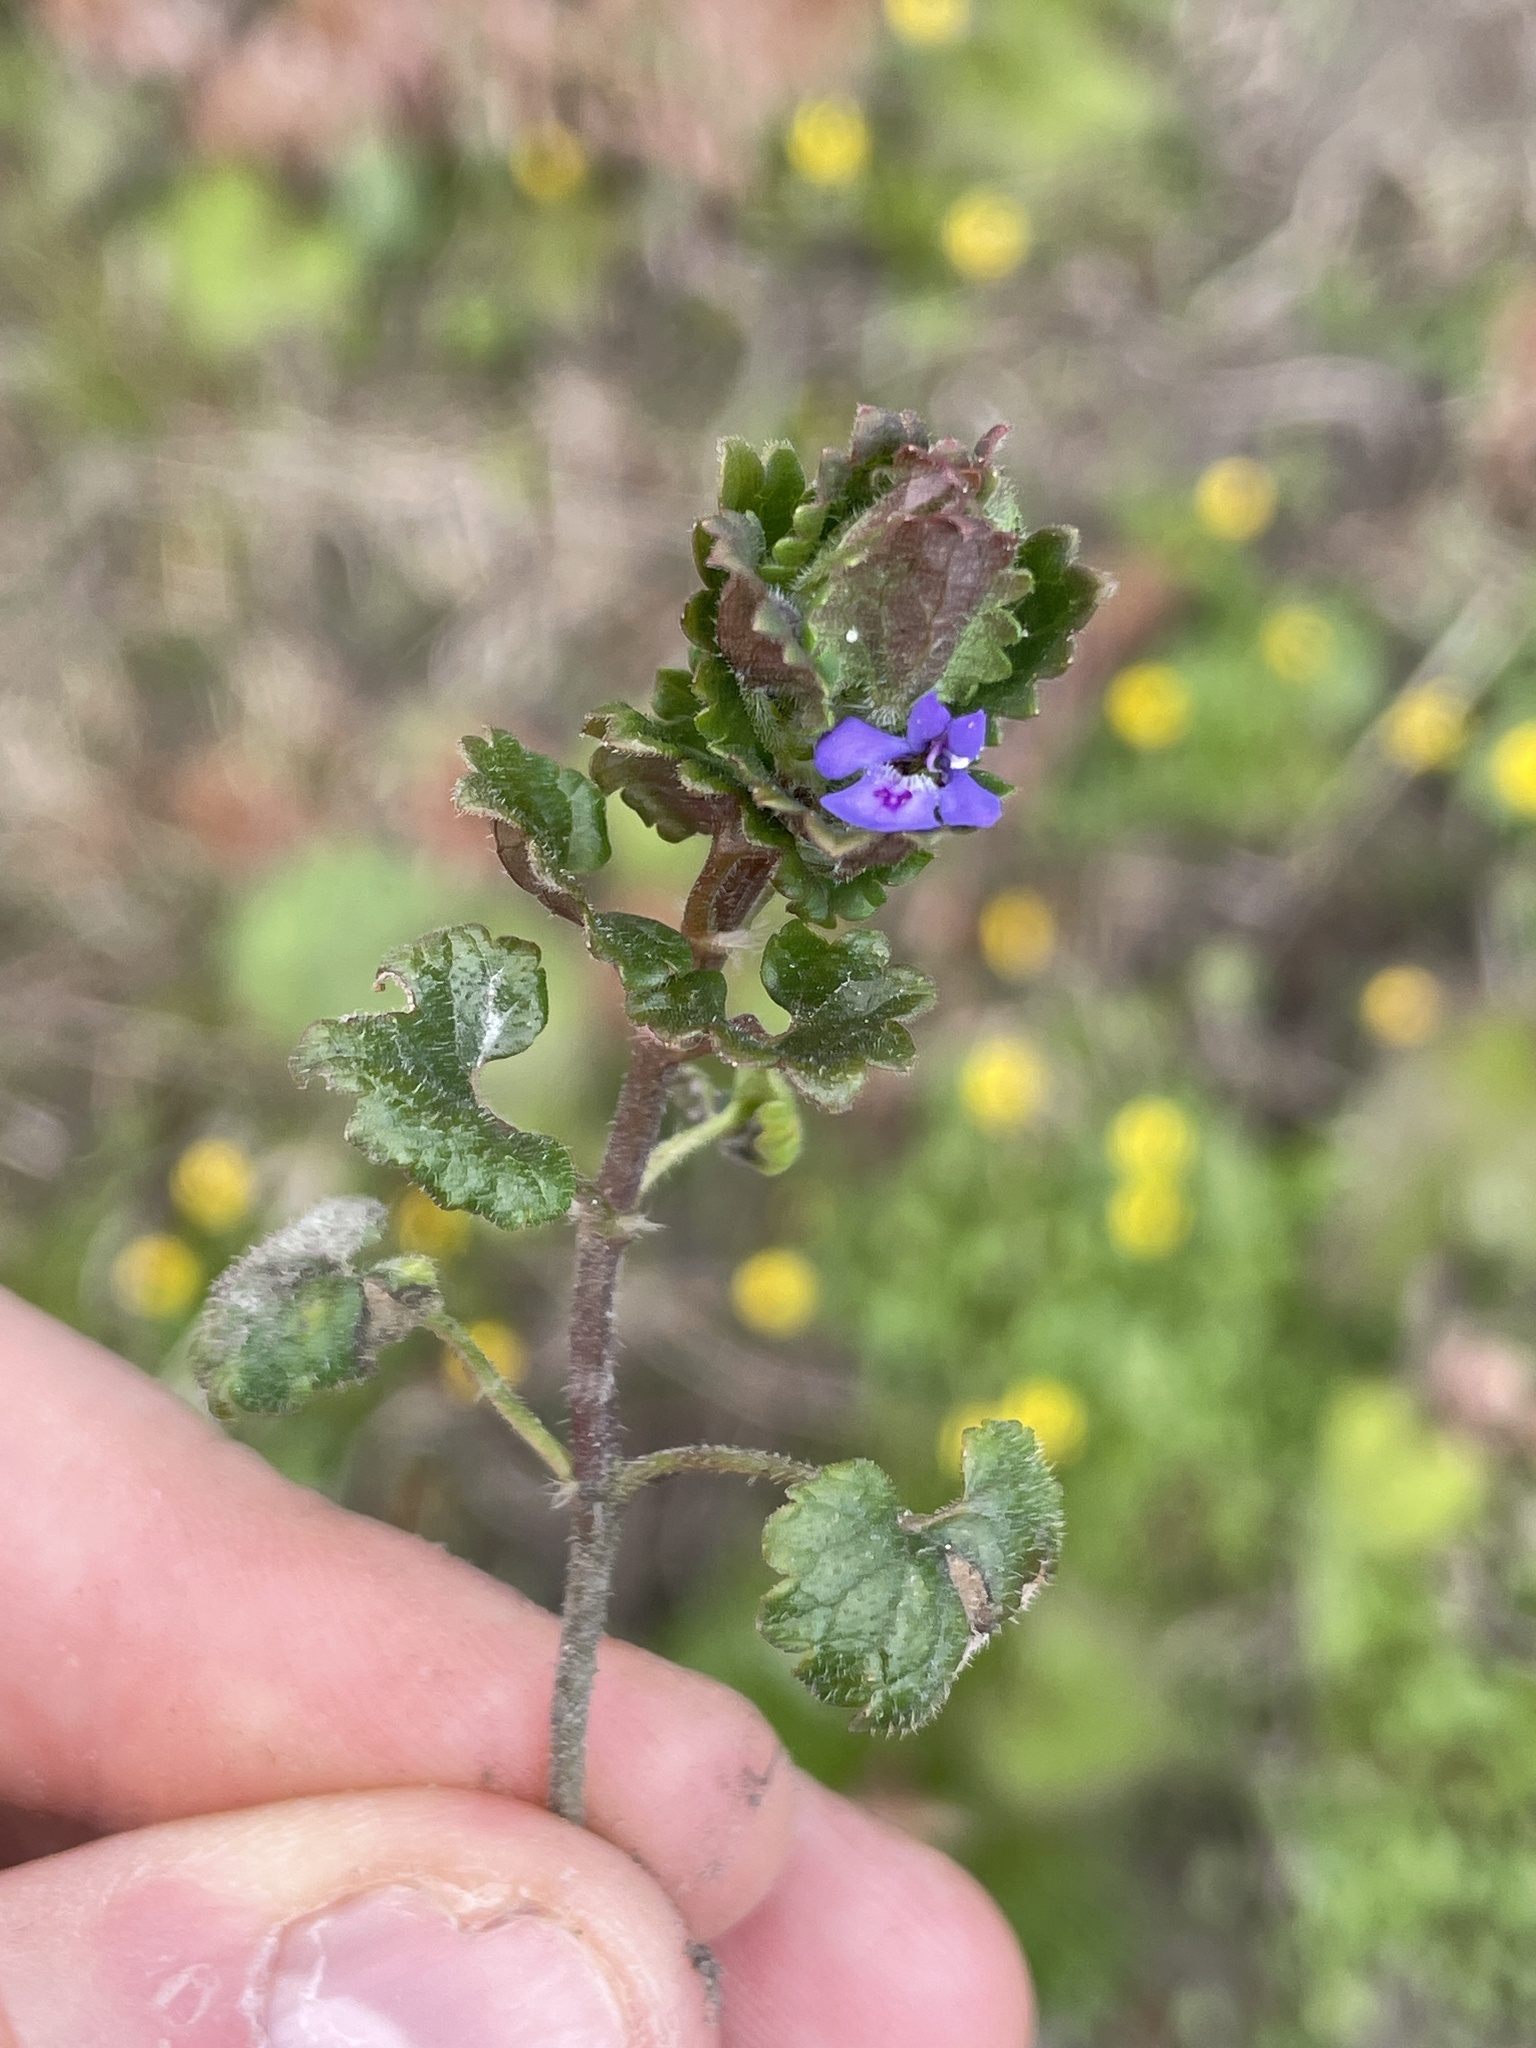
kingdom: Plantae
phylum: Tracheophyta
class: Magnoliopsida
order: Lamiales
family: Lamiaceae
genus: Glechoma
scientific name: Glechoma hederacea
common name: Ground ivy
